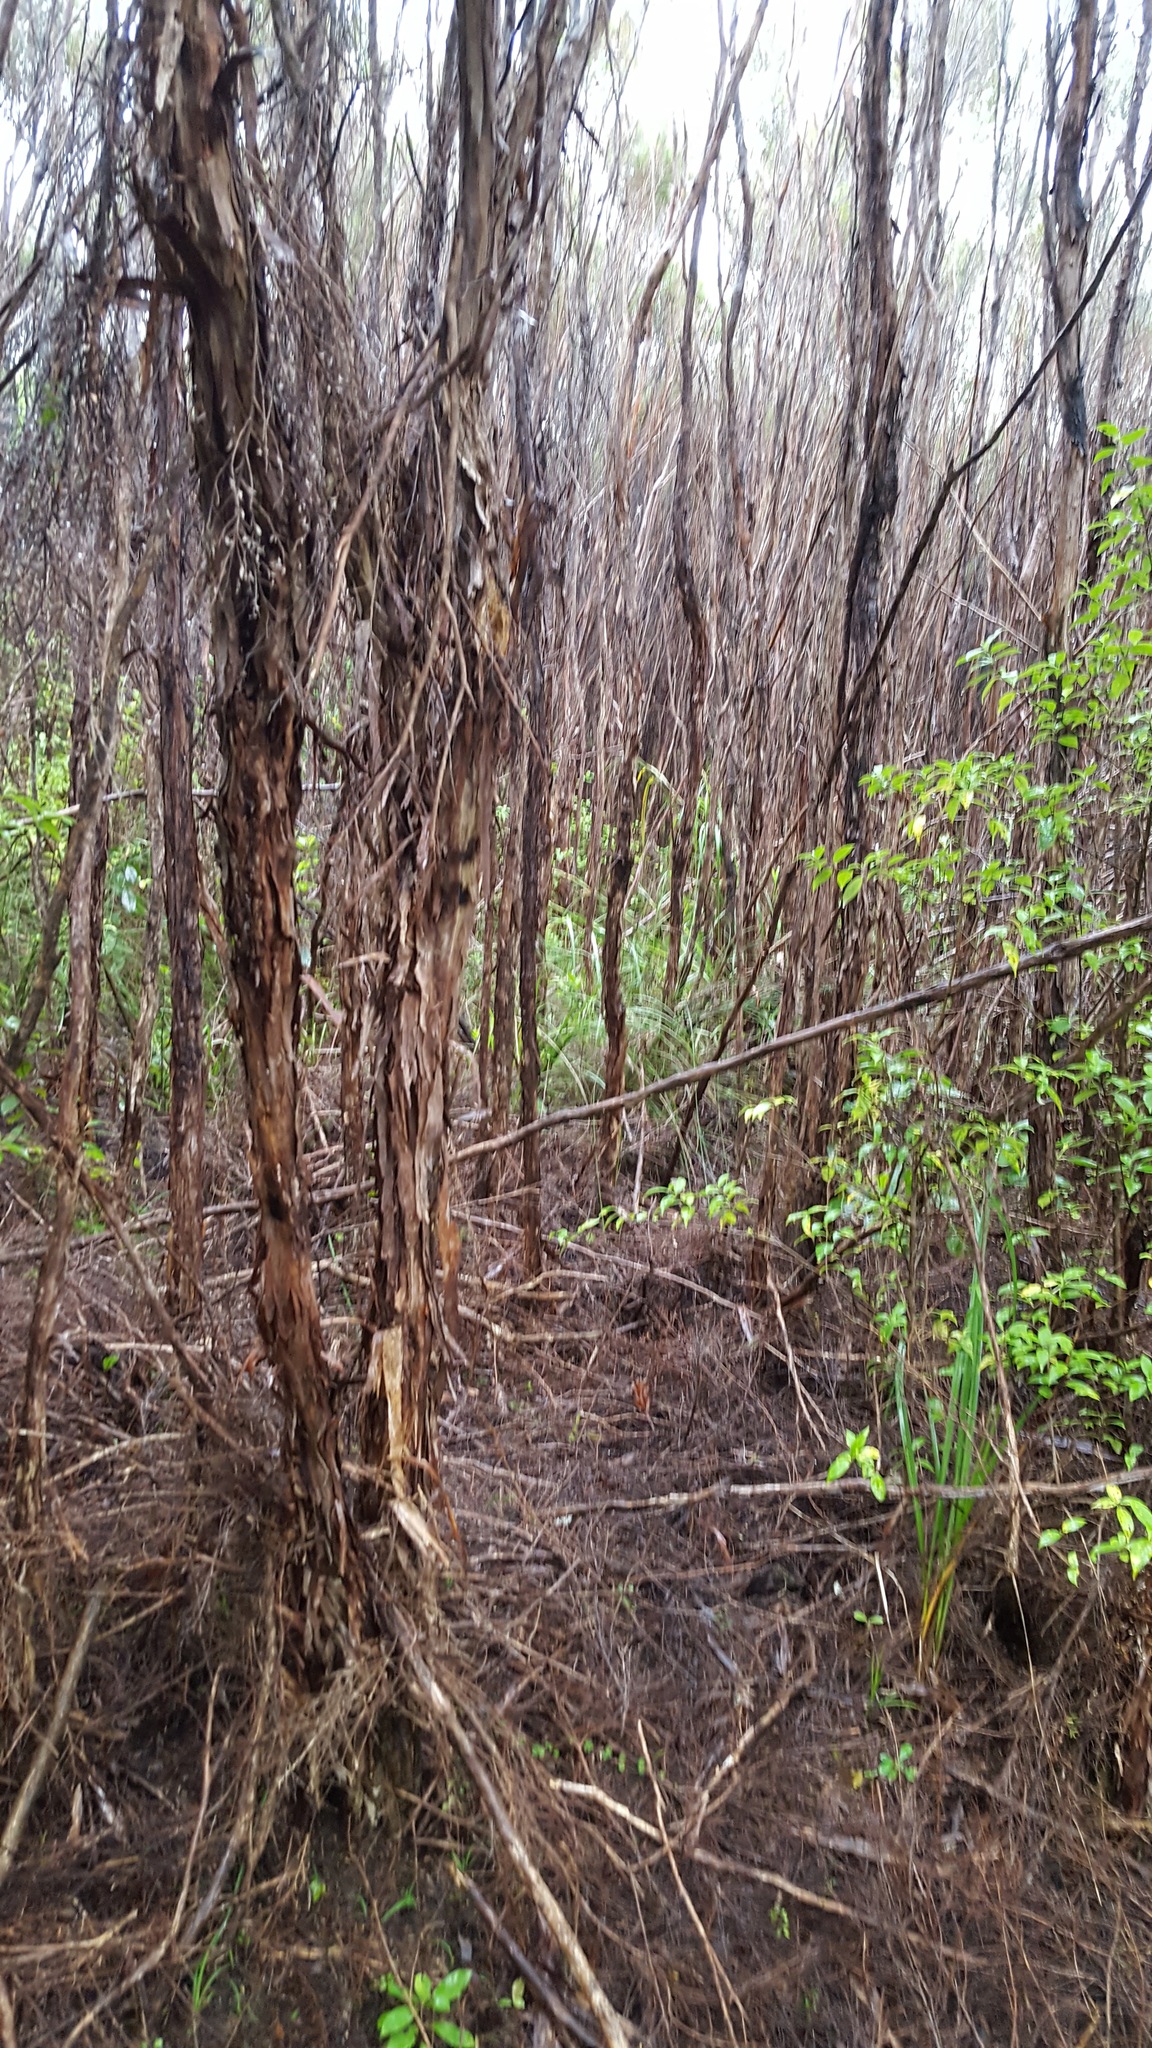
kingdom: Animalia
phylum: Chordata
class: Aves
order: Passeriformes
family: Locustellidae
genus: Megalurus
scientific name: Megalurus punctatus
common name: New zealand fernbird
